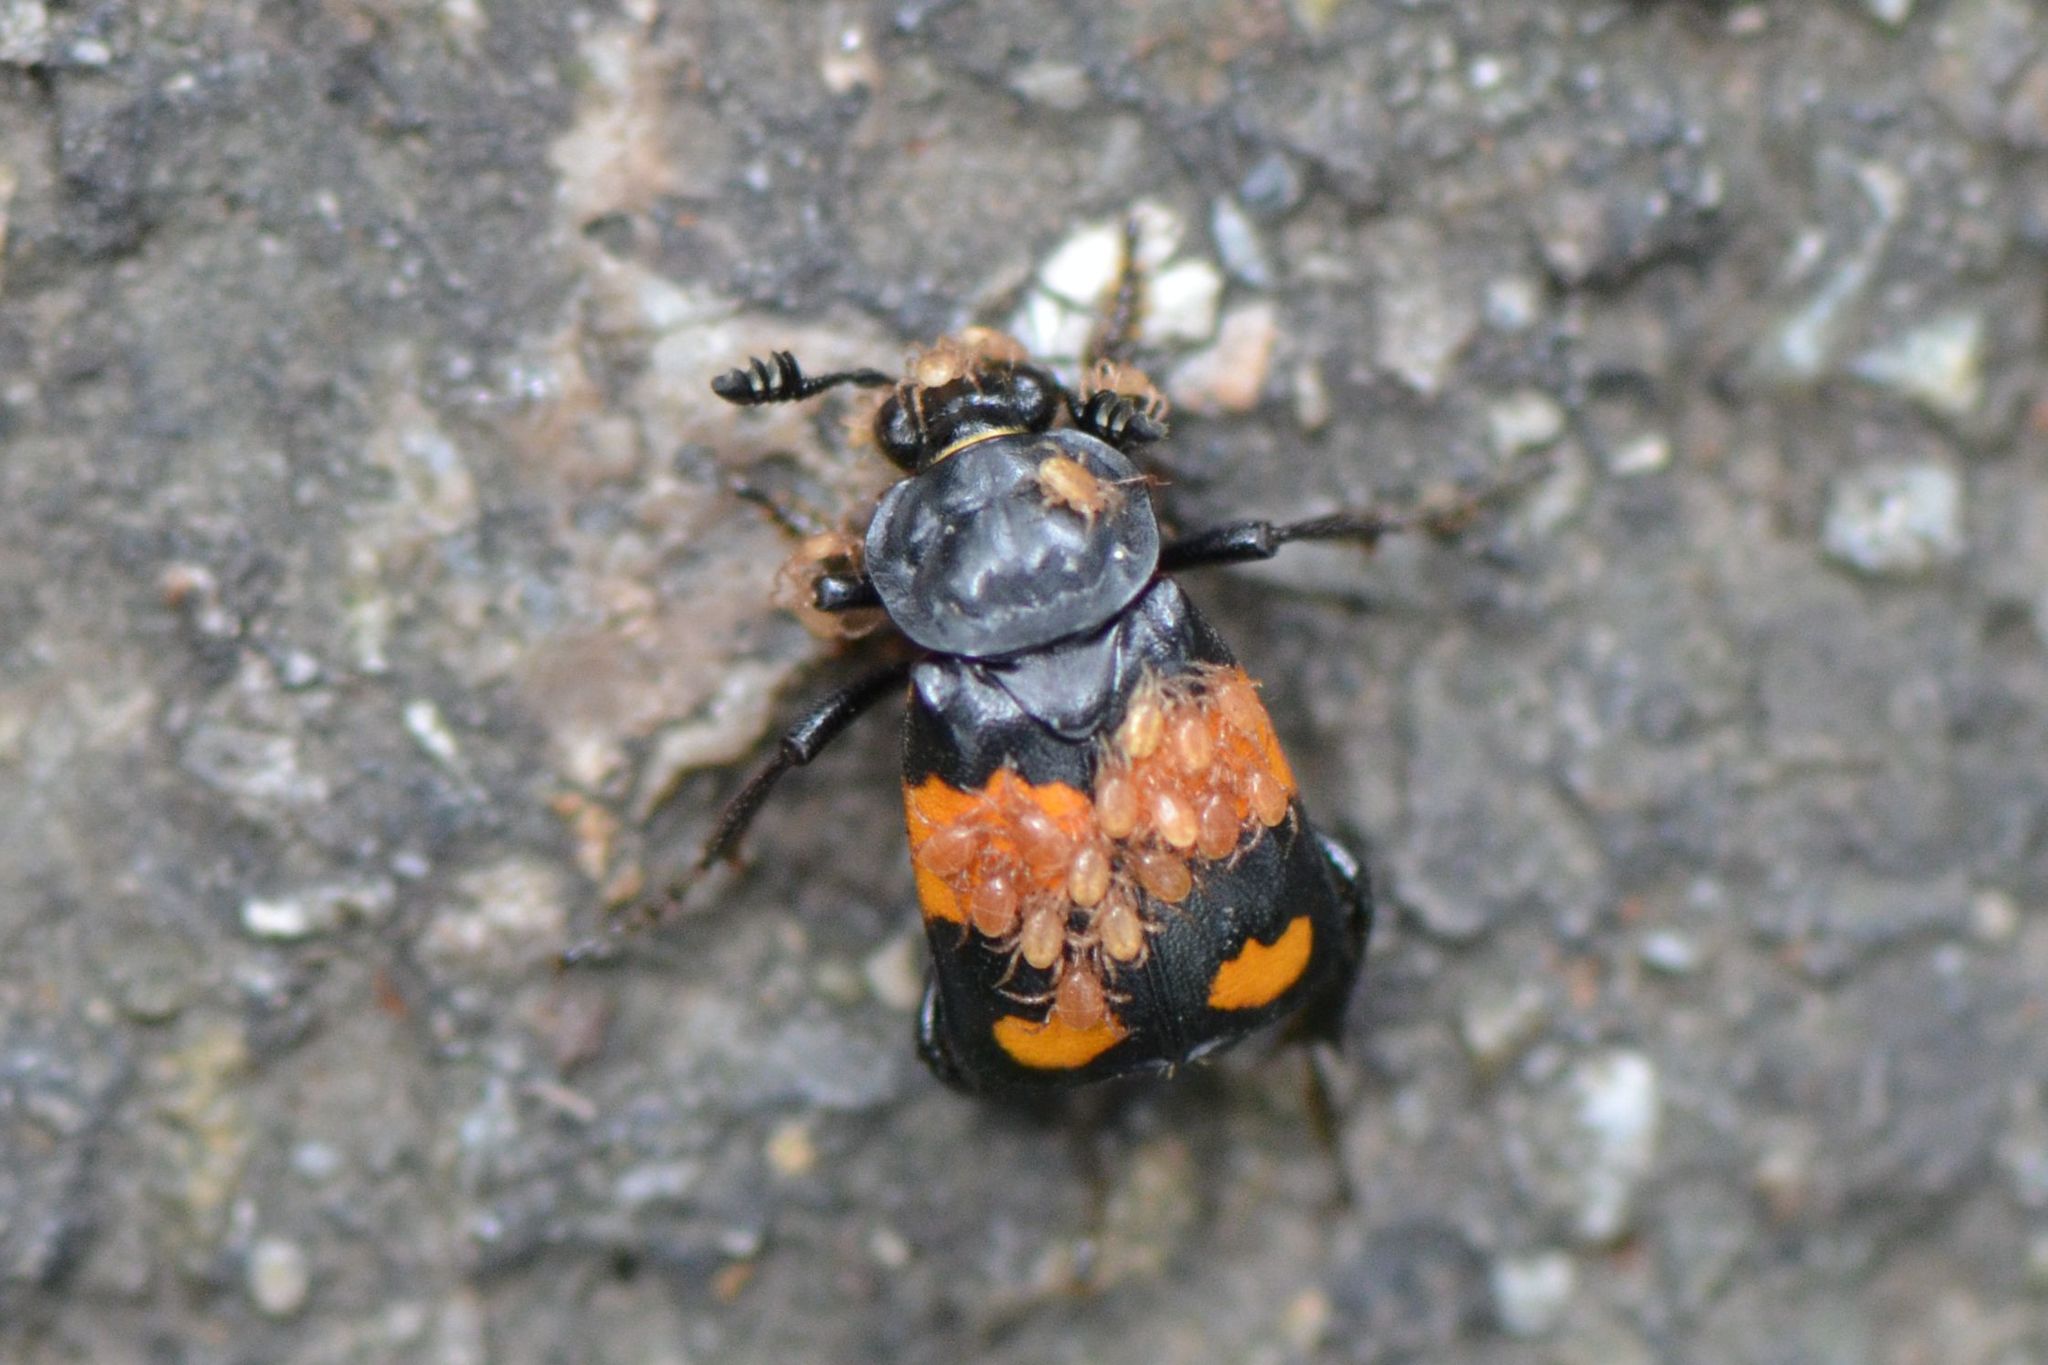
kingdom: Animalia
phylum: Arthropoda
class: Insecta
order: Coleoptera
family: Staphylinidae
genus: Nicrophorus
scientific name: Nicrophorus vespilloides
